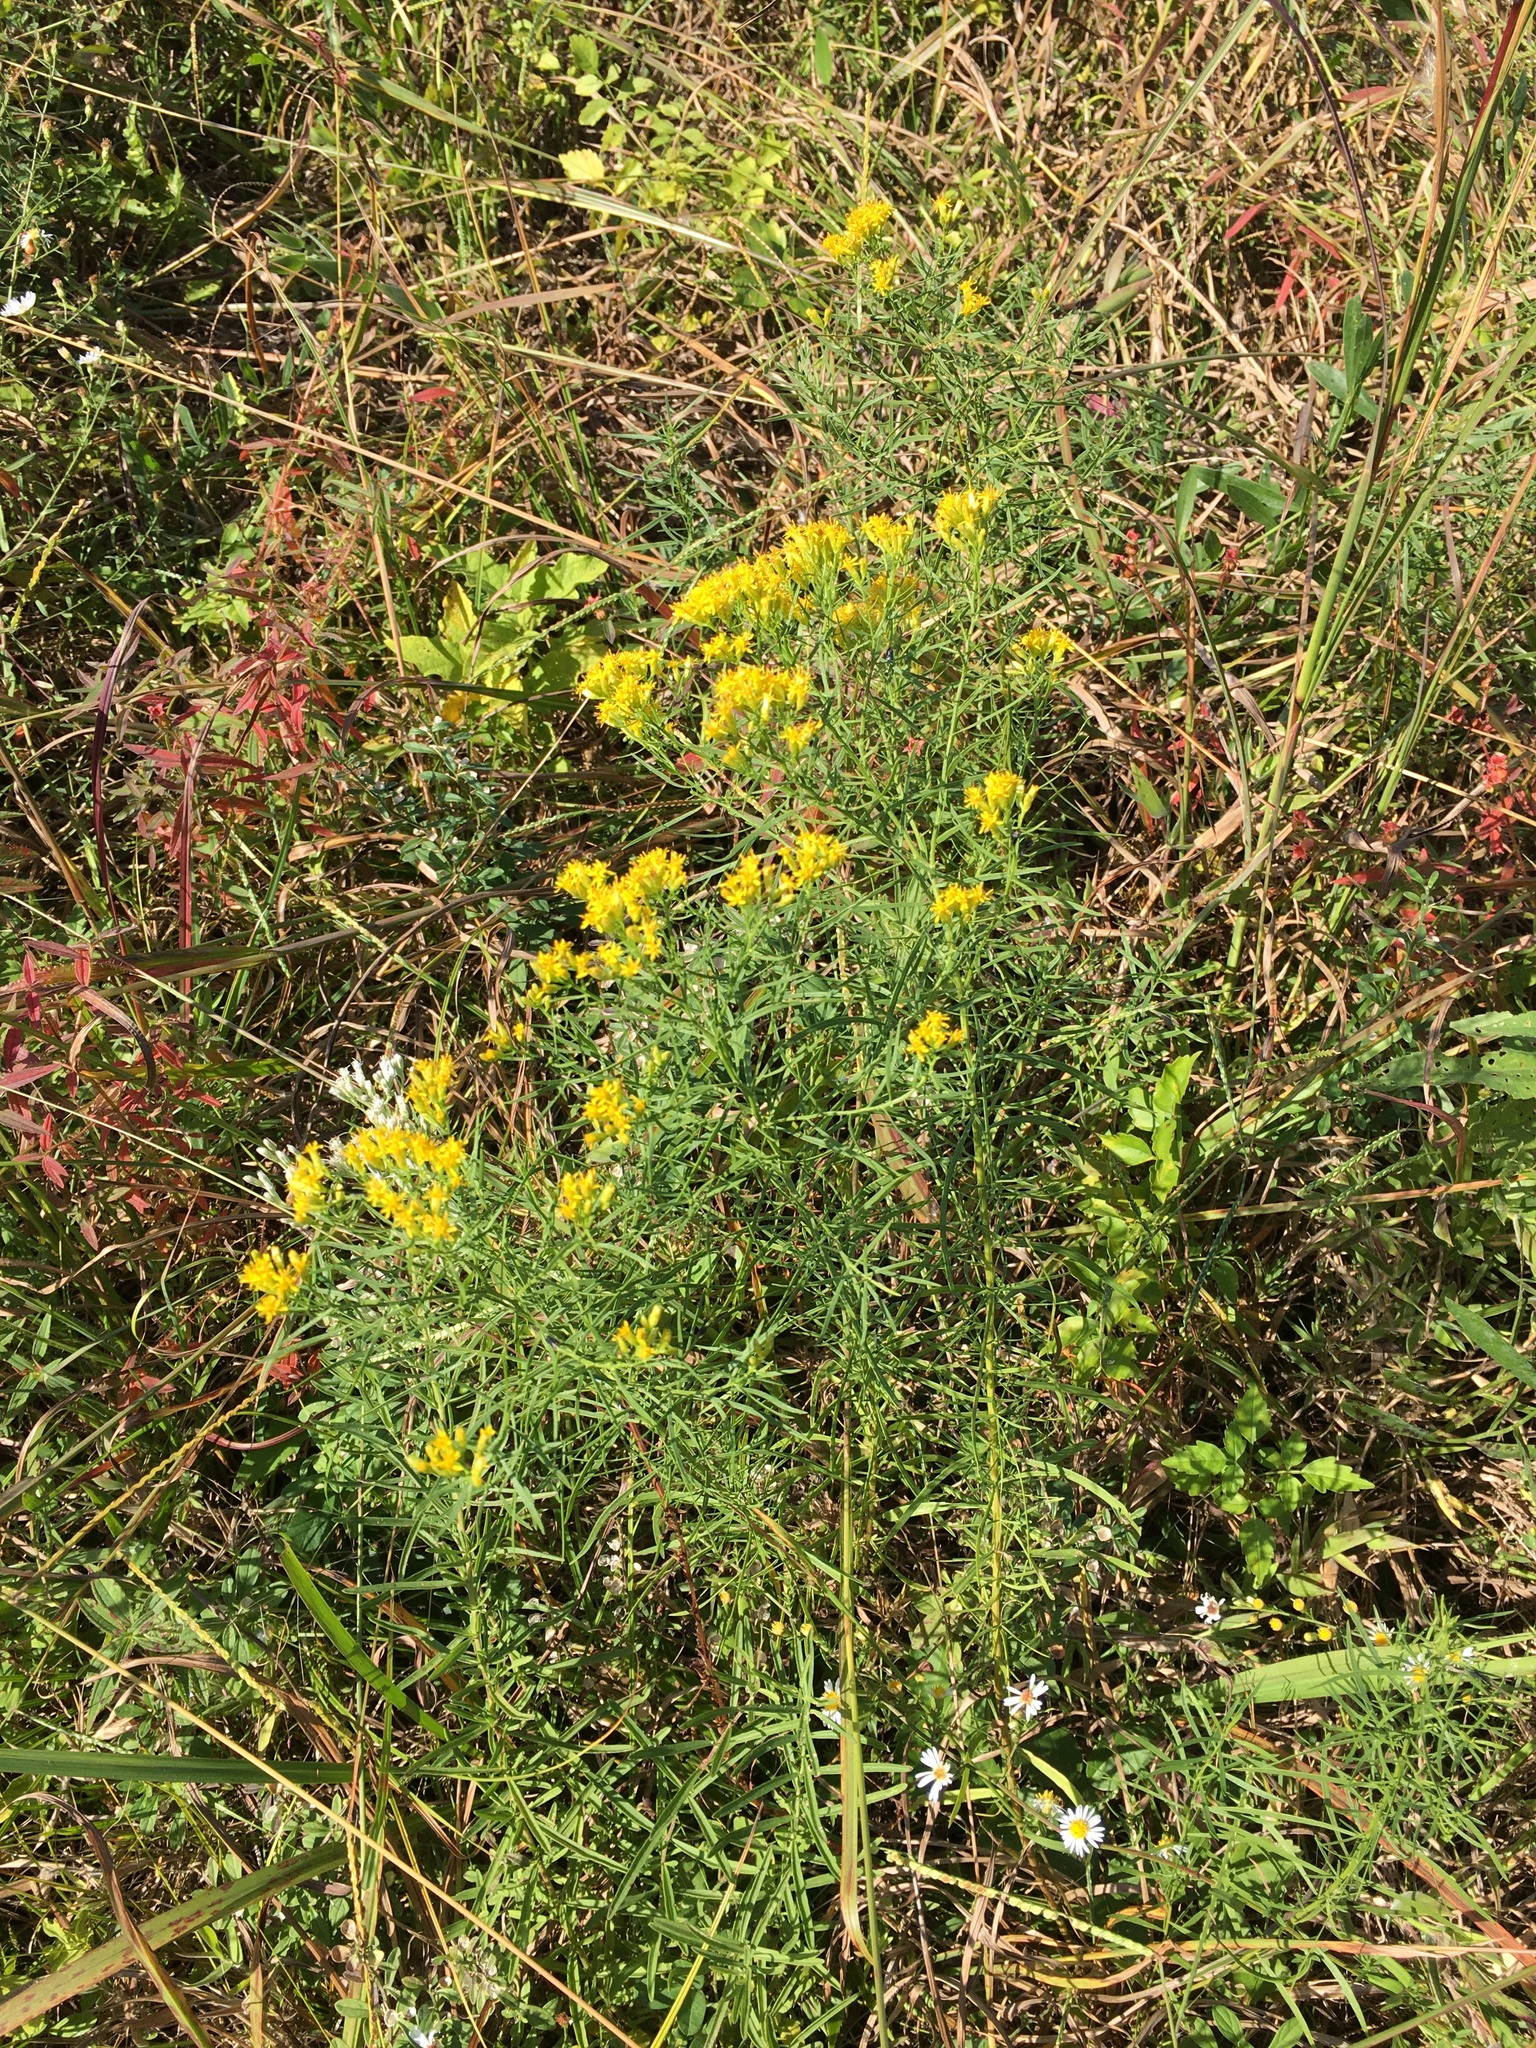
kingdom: Plantae
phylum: Tracheophyta
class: Magnoliopsida
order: Asterales
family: Asteraceae
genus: Euthamia
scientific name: Euthamia caroliniana
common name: Coastal plain goldentop
